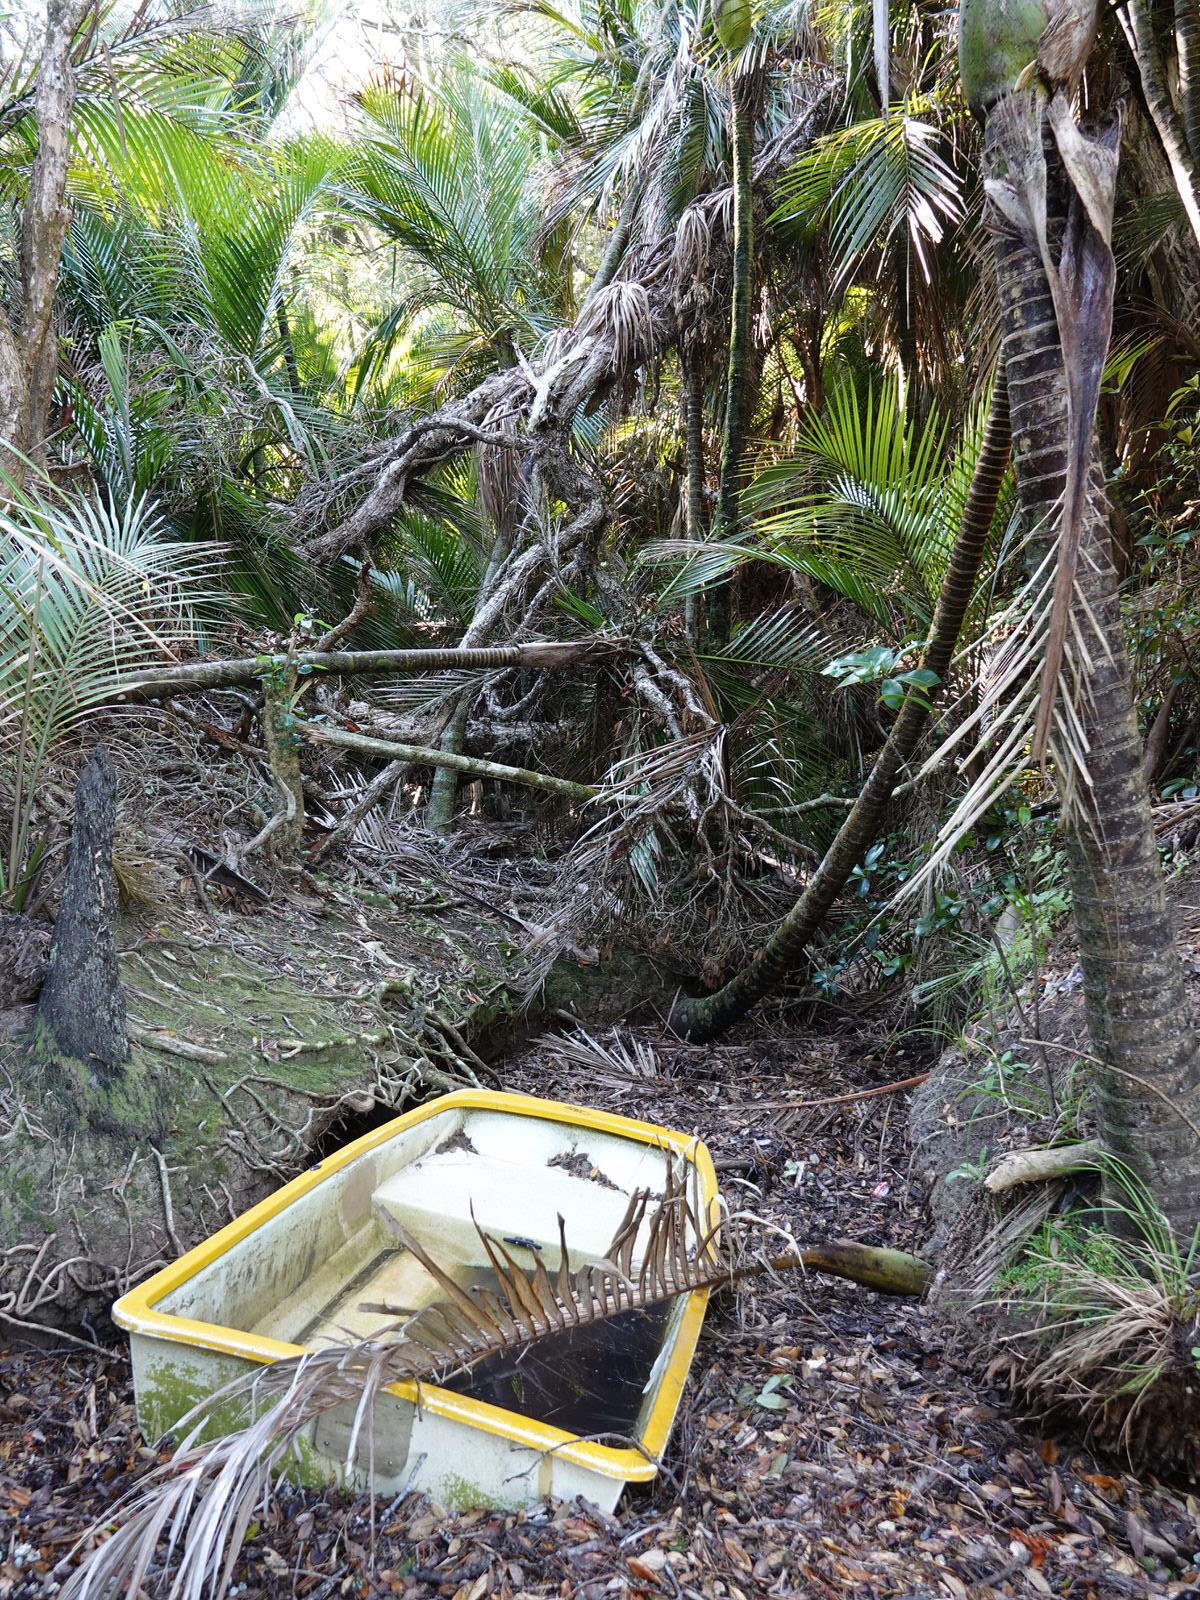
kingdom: Plantae
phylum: Tracheophyta
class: Liliopsida
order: Arecales
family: Arecaceae
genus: Rhopalostylis
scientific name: Rhopalostylis sapida
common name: Feather-duster palm
